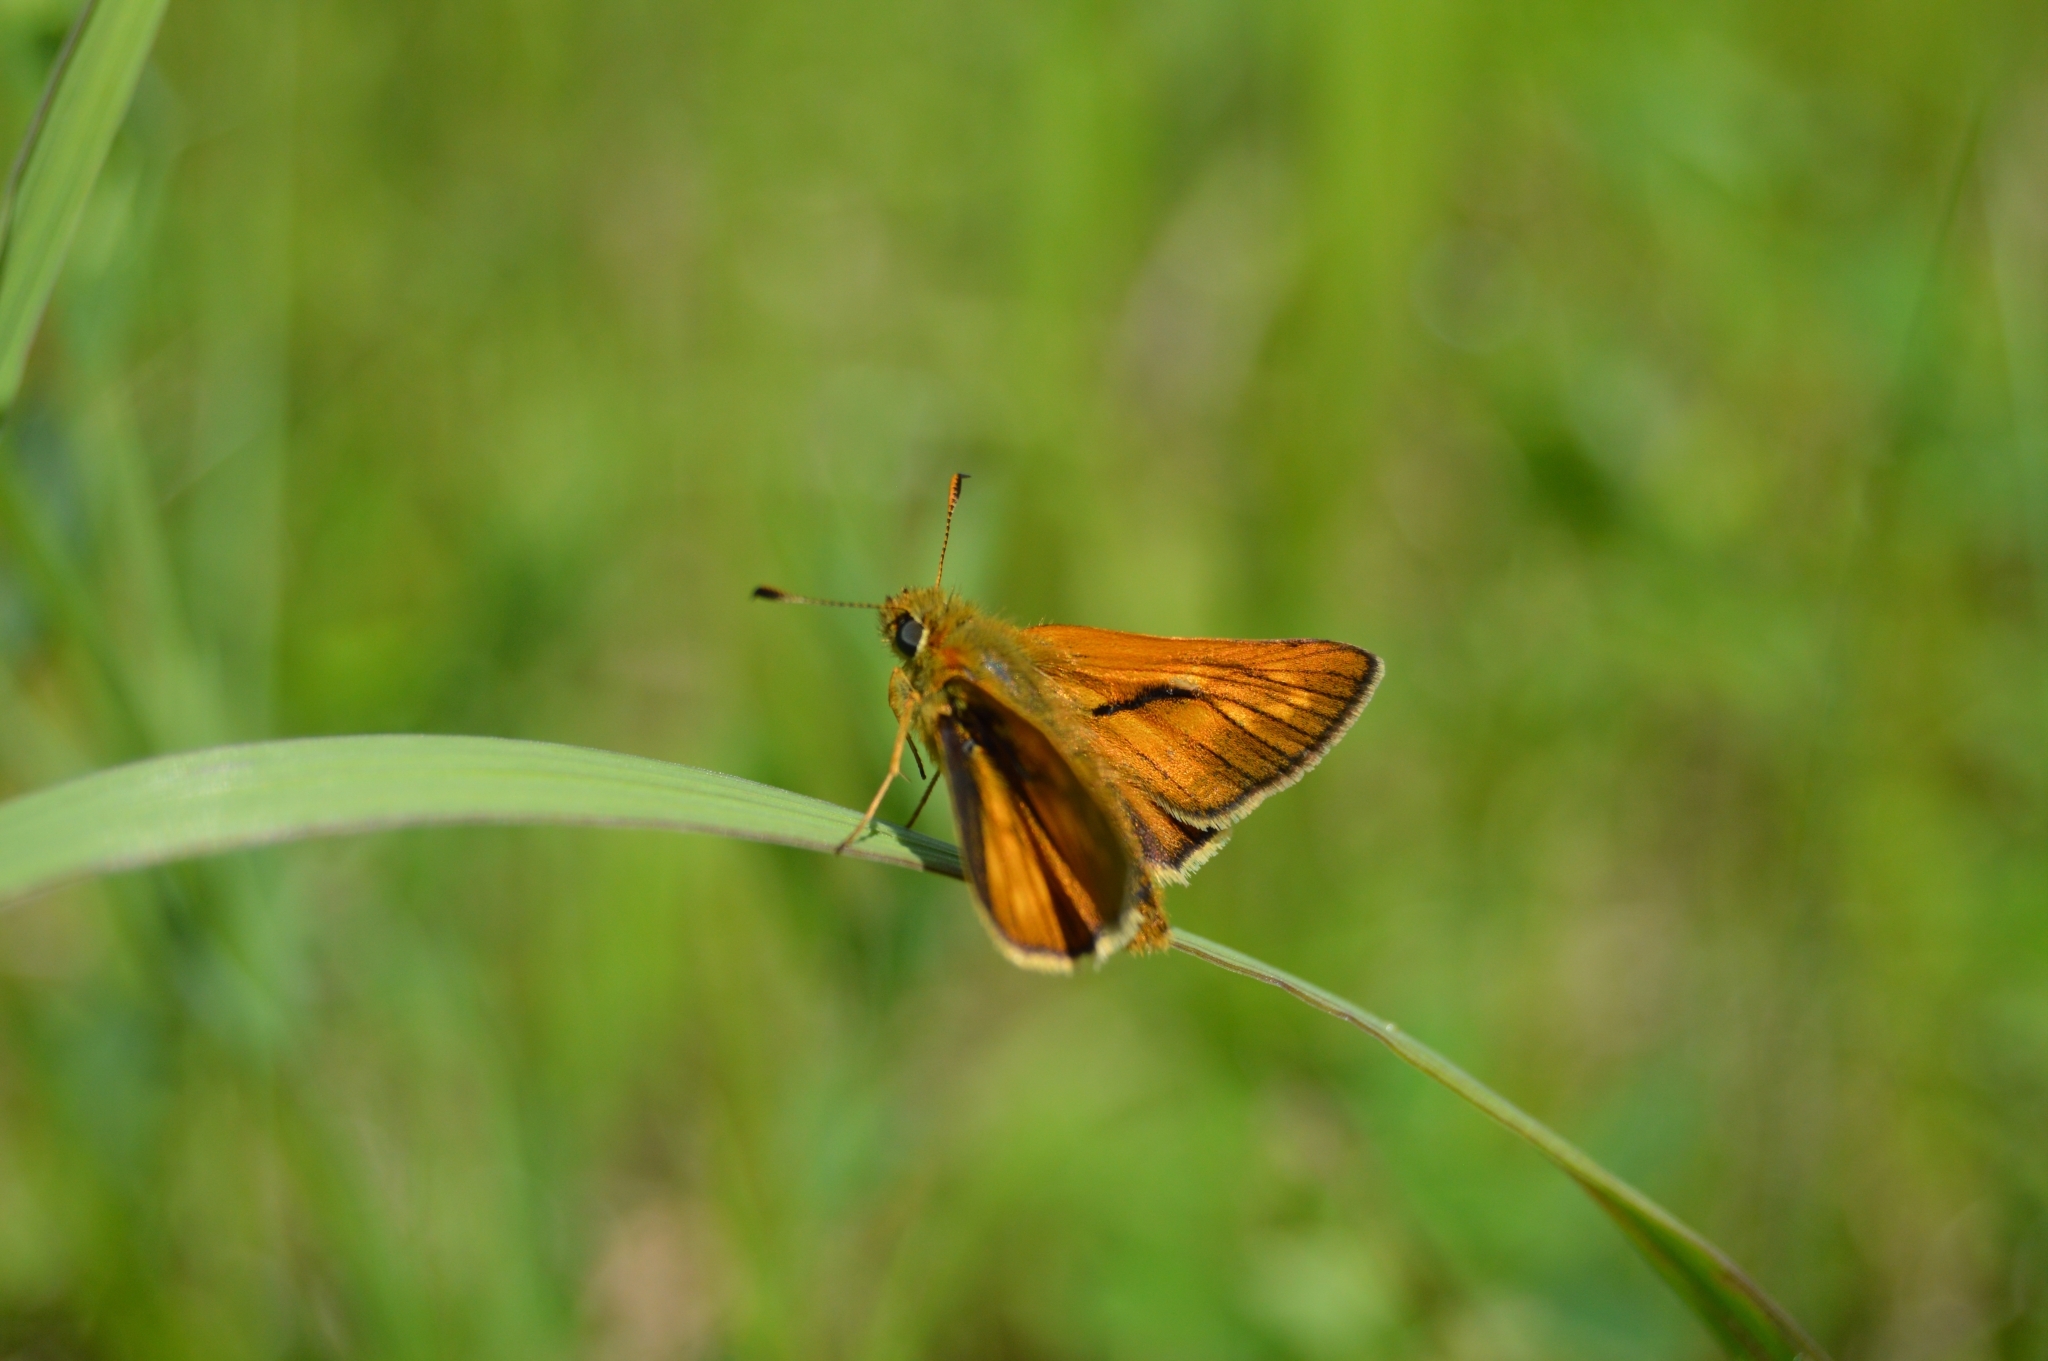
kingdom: Animalia
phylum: Arthropoda
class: Insecta
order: Lepidoptera
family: Hesperiidae
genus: Ochlodes
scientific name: Ochlodes venata
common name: Large skipper
